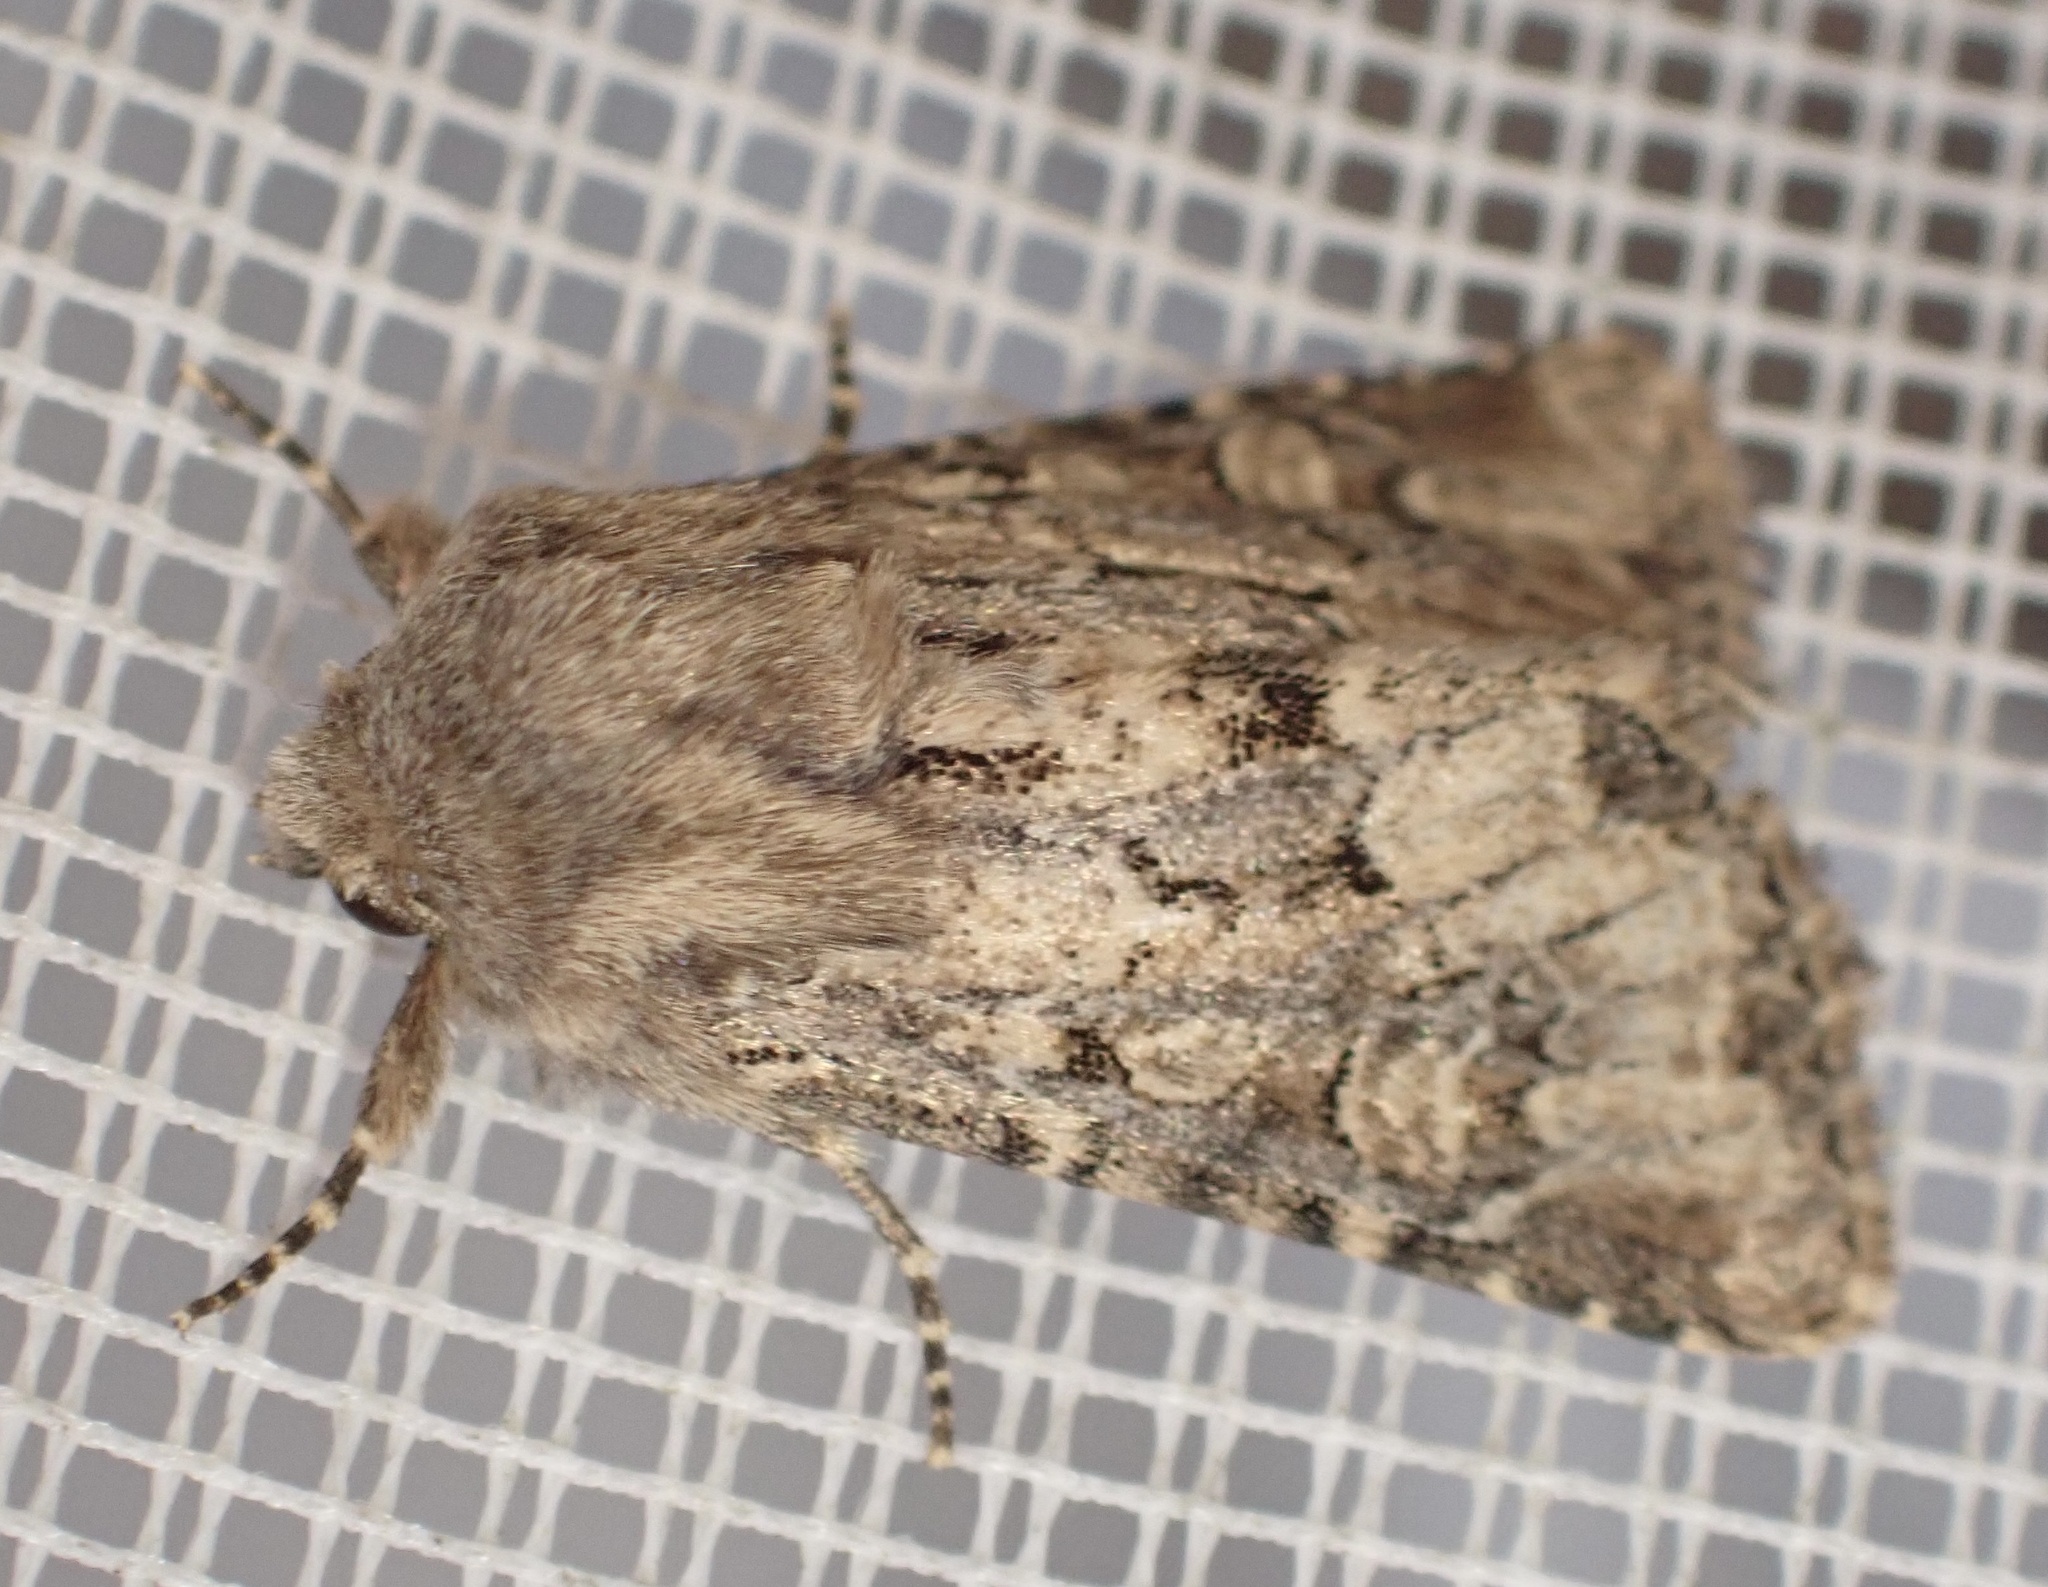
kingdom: Animalia
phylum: Arthropoda
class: Insecta
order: Lepidoptera
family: Noctuidae
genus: Luperina
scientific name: Luperina testacea
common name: Flounced rustic
